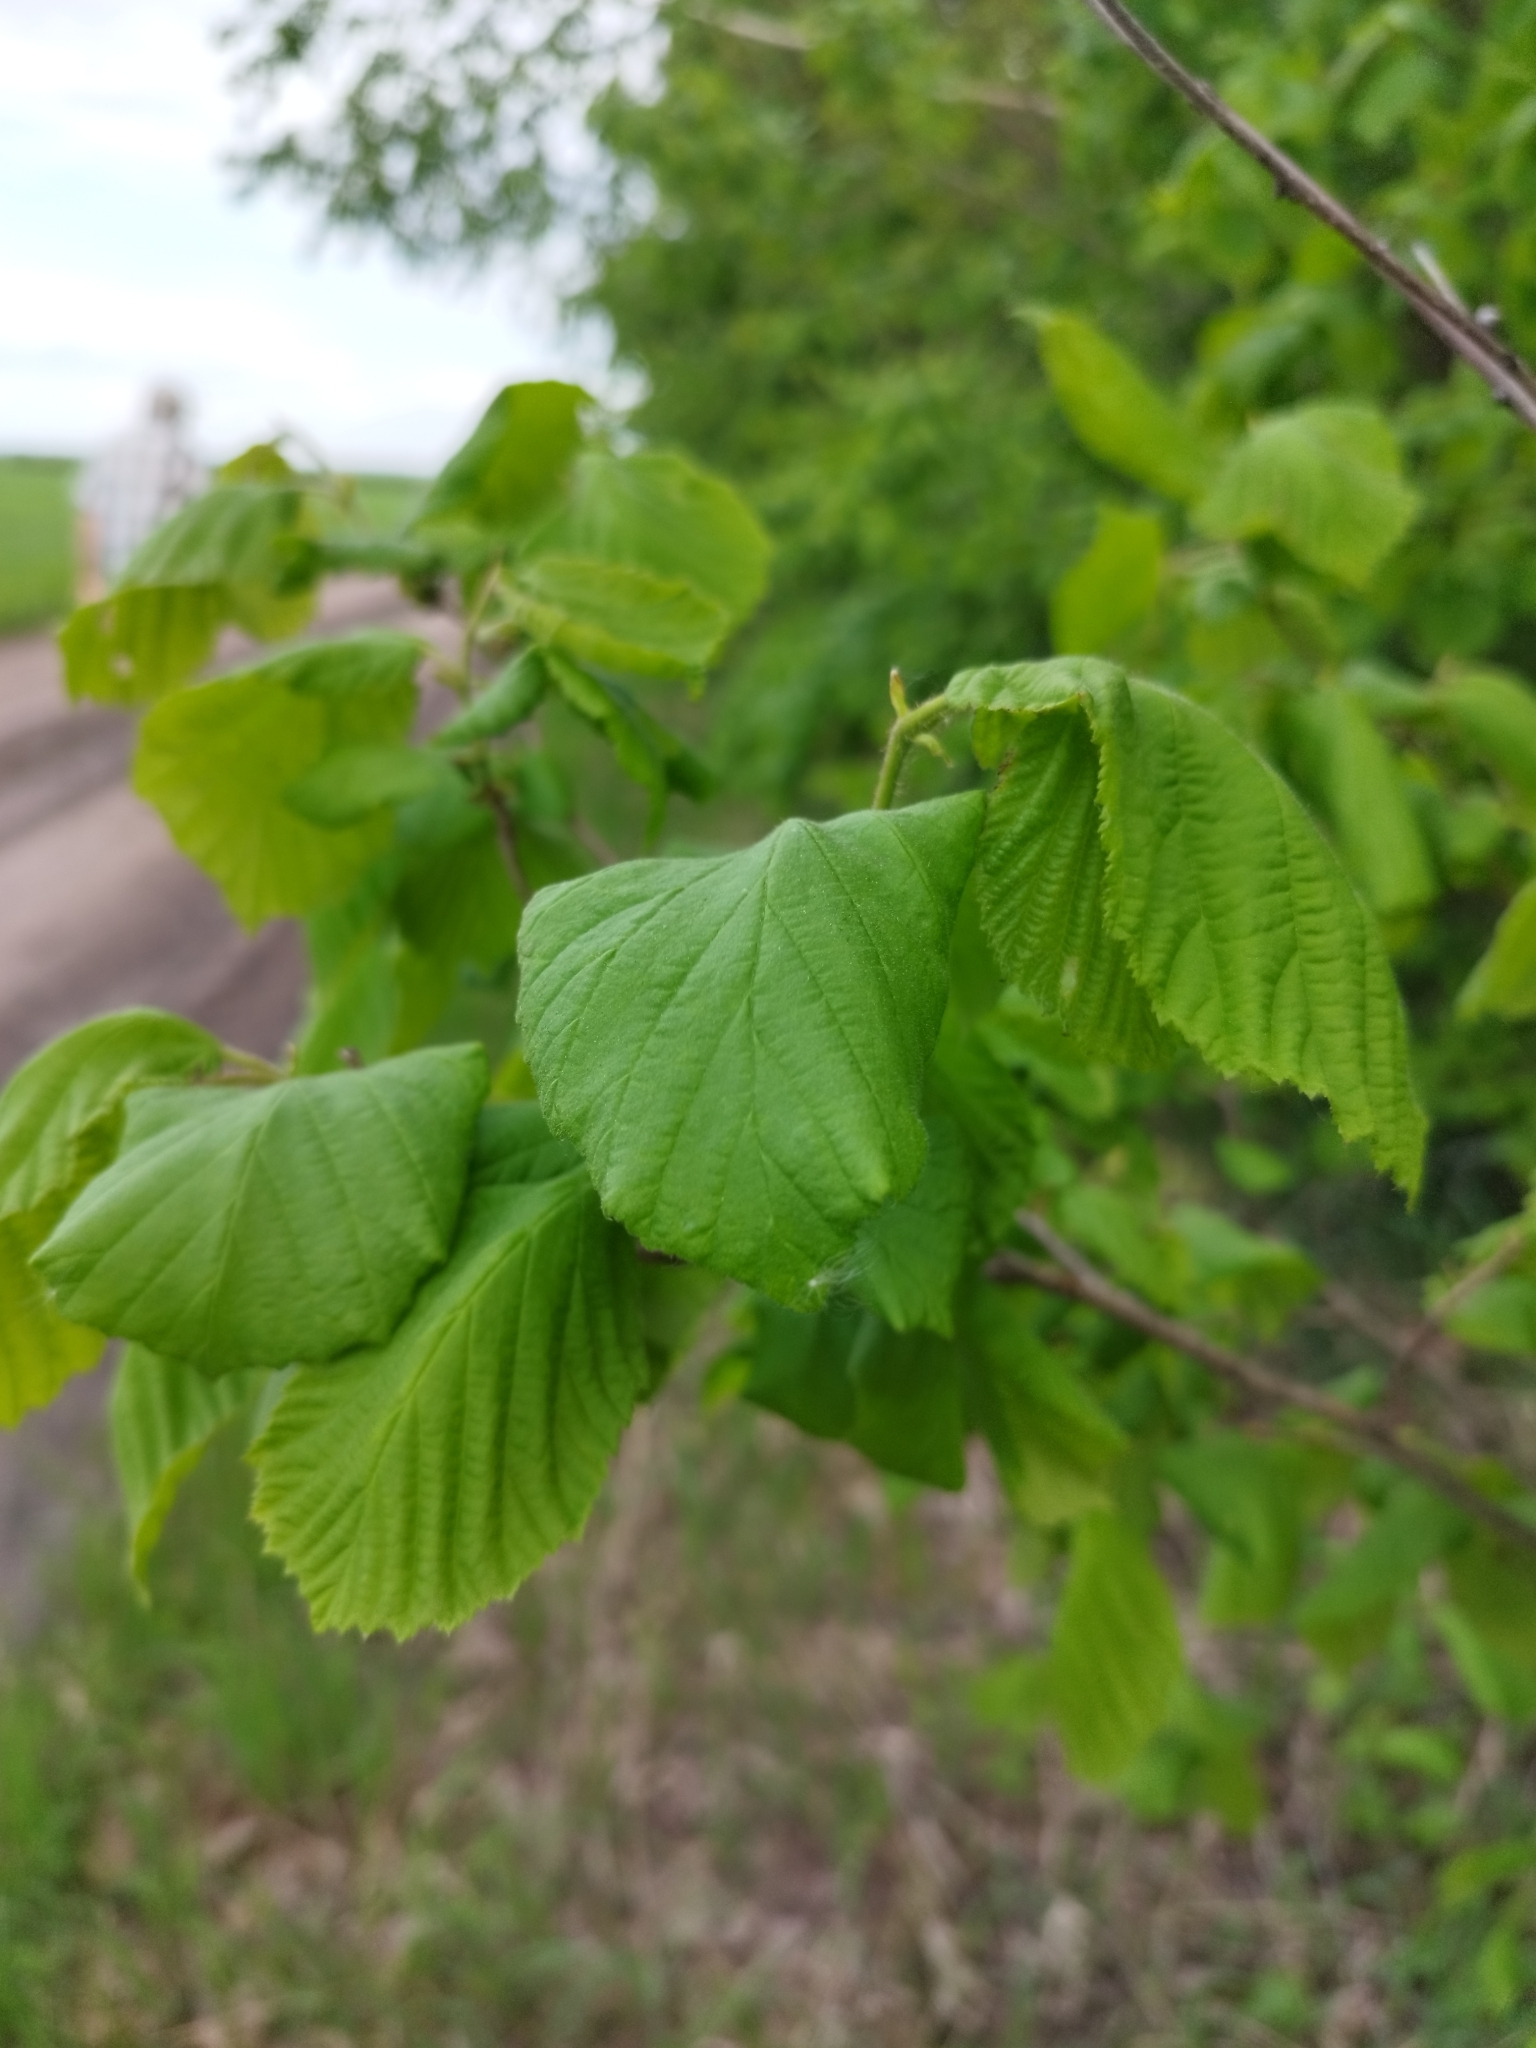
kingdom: Plantae
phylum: Tracheophyta
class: Magnoliopsida
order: Fagales
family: Betulaceae
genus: Corylus
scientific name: Corylus avellana
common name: European hazel
